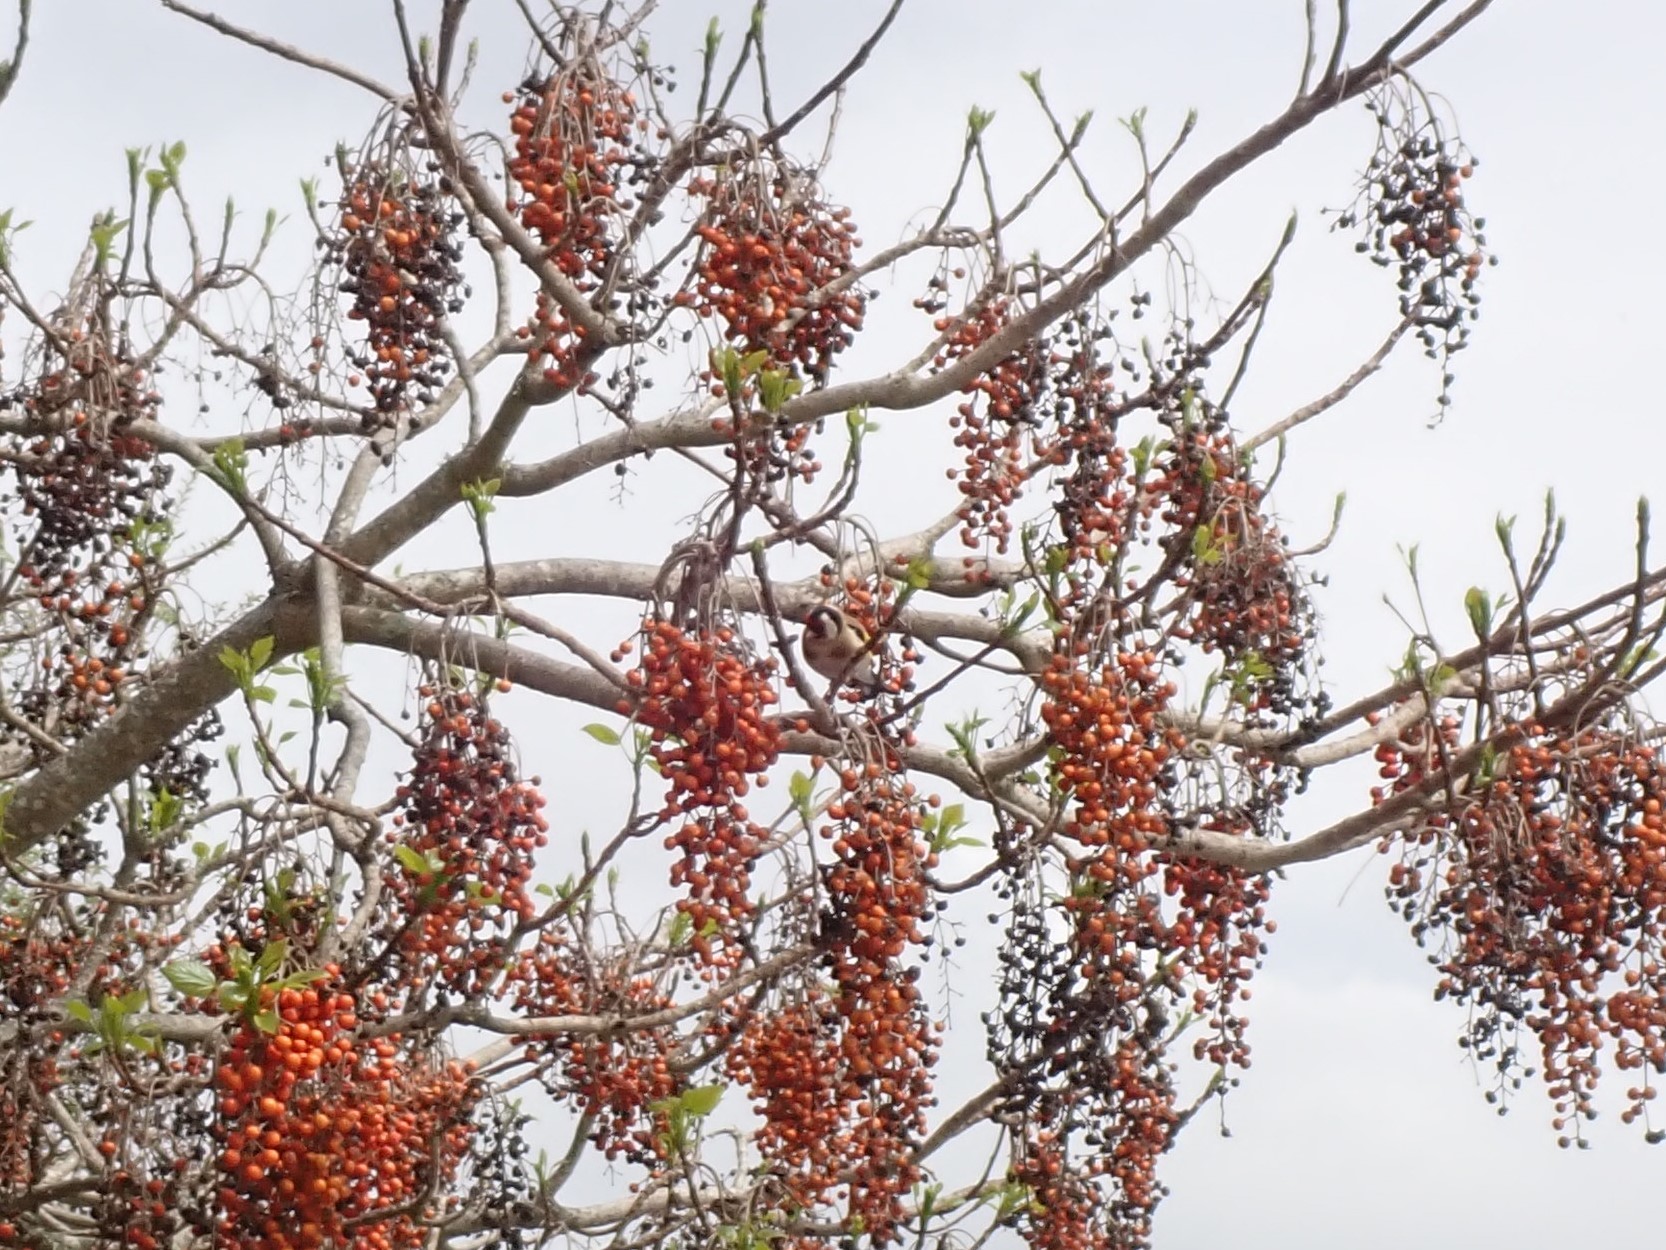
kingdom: Animalia
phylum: Chordata
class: Aves
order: Passeriformes
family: Fringillidae
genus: Carduelis
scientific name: Carduelis carduelis
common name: European goldfinch
